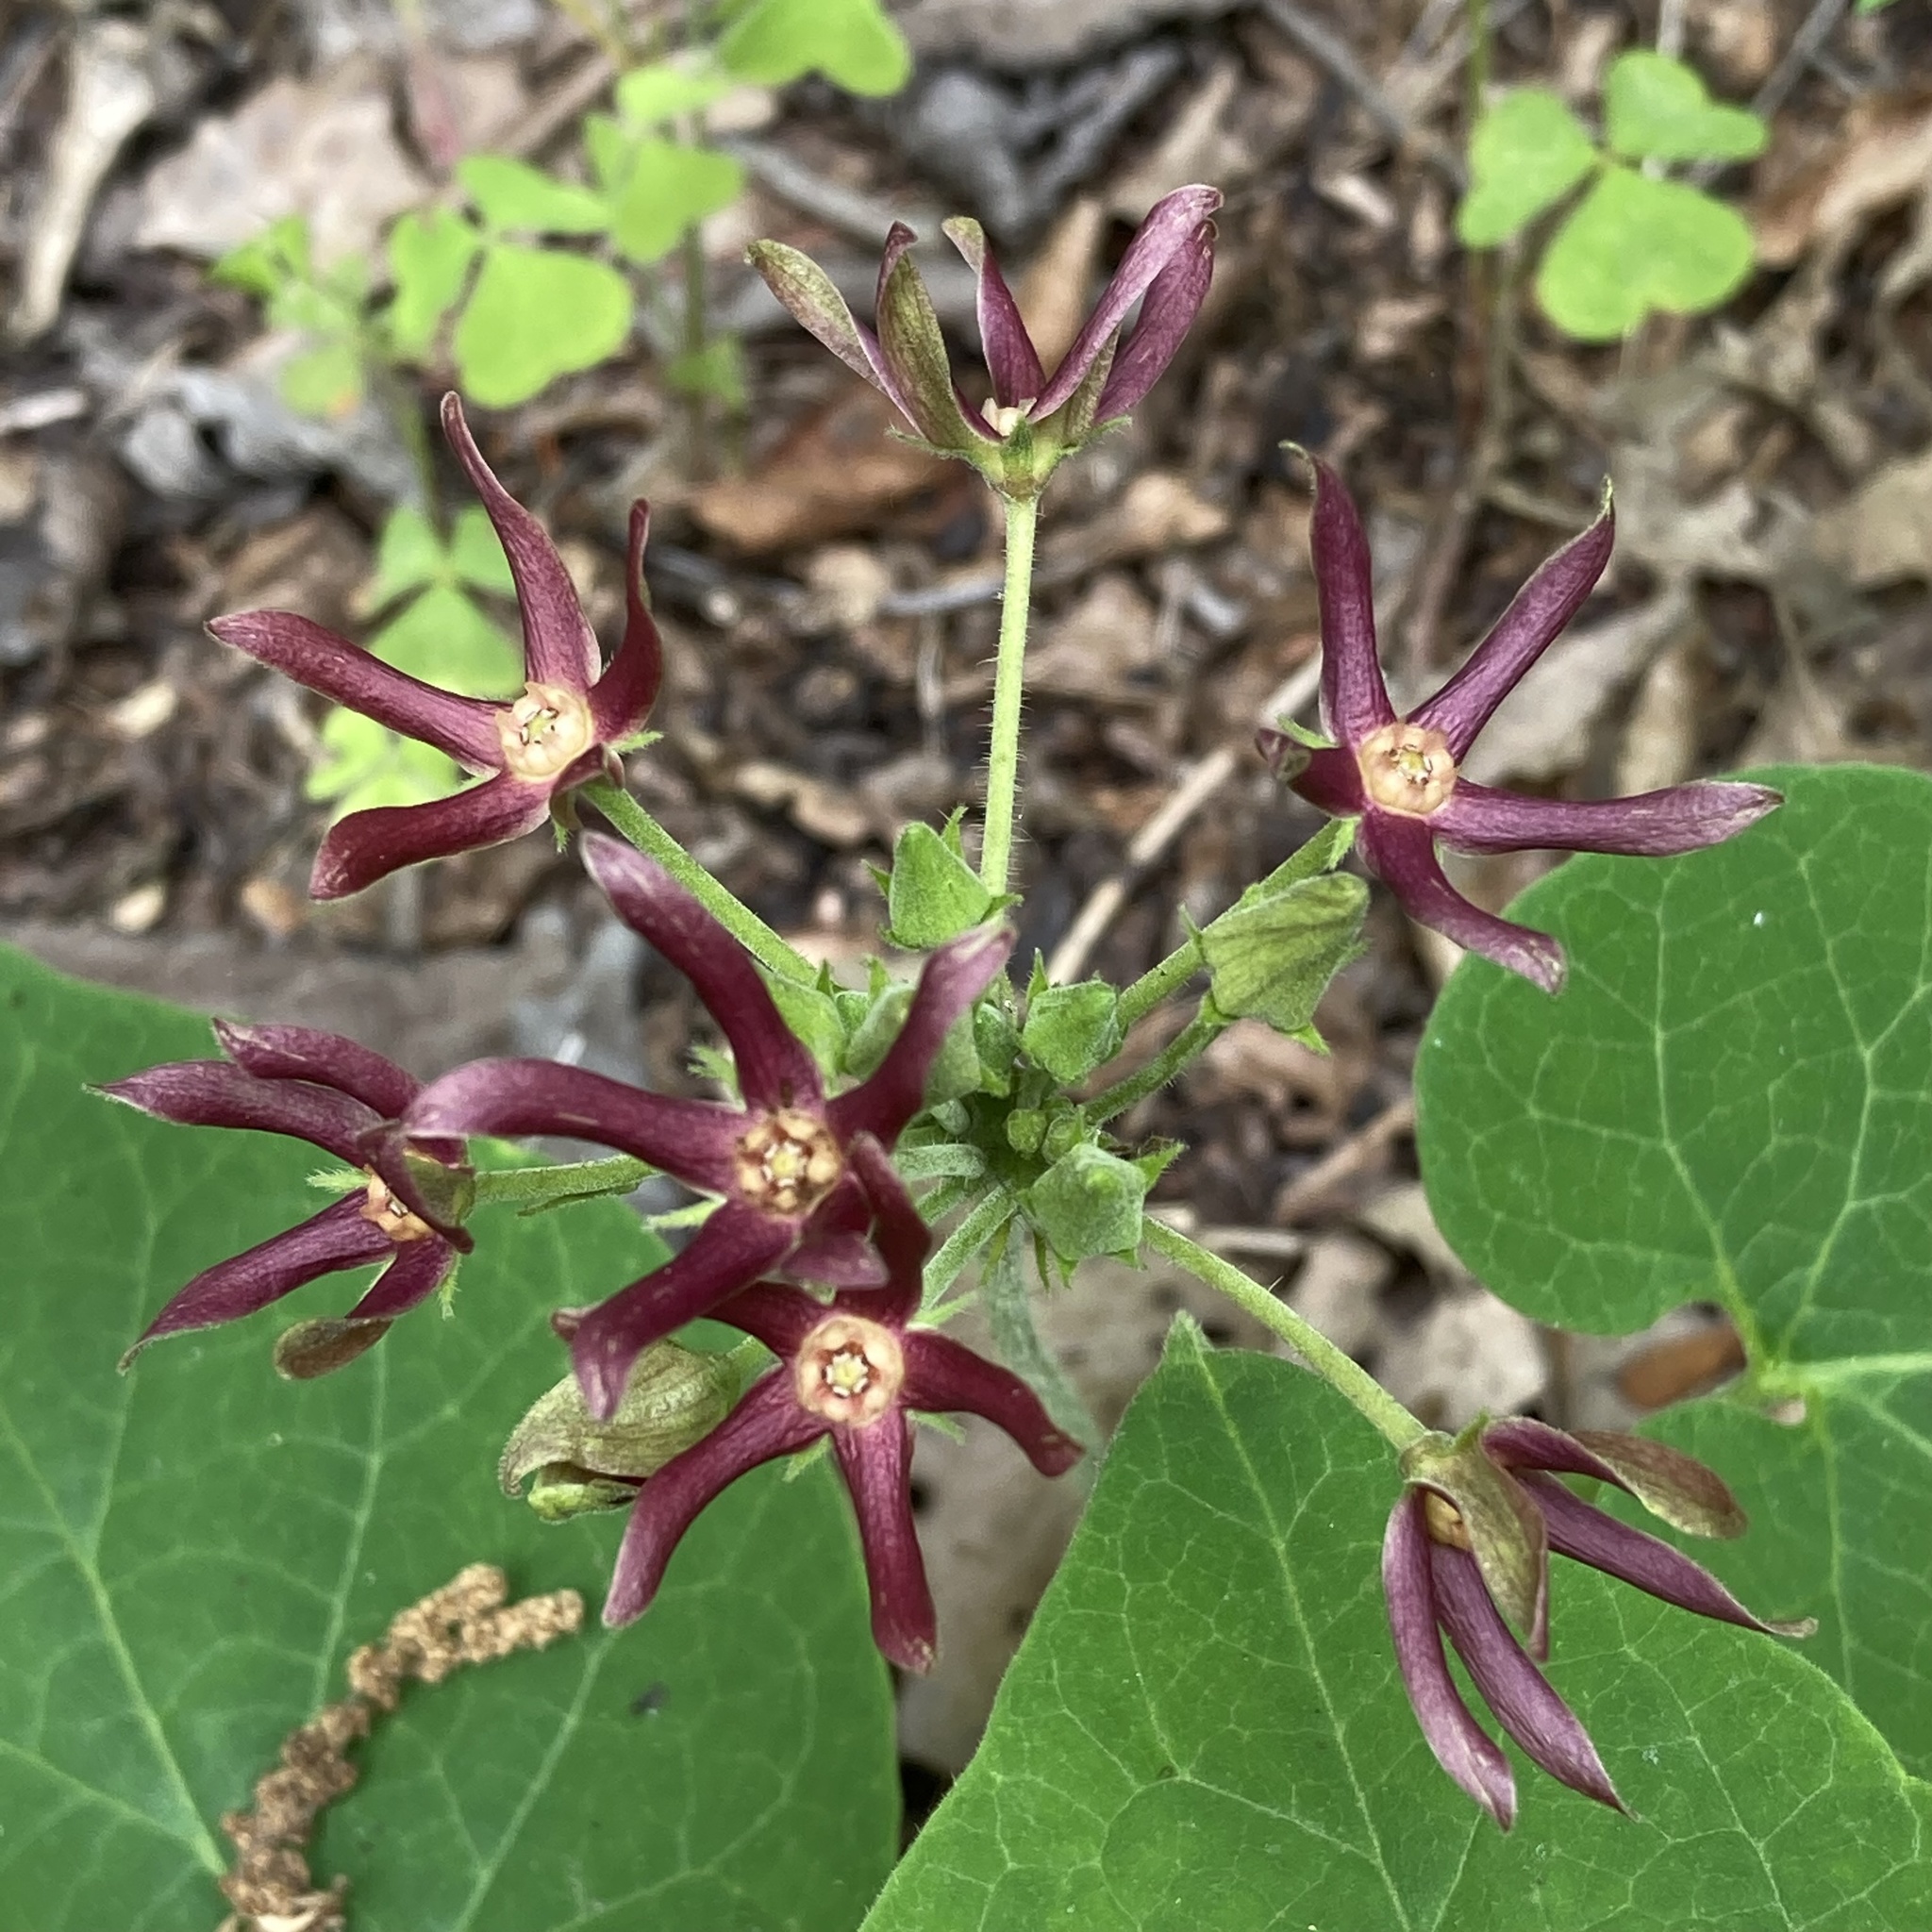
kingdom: Plantae
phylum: Tracheophyta
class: Magnoliopsida
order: Gentianales
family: Apocynaceae
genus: Matelea
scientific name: Matelea obliqua
